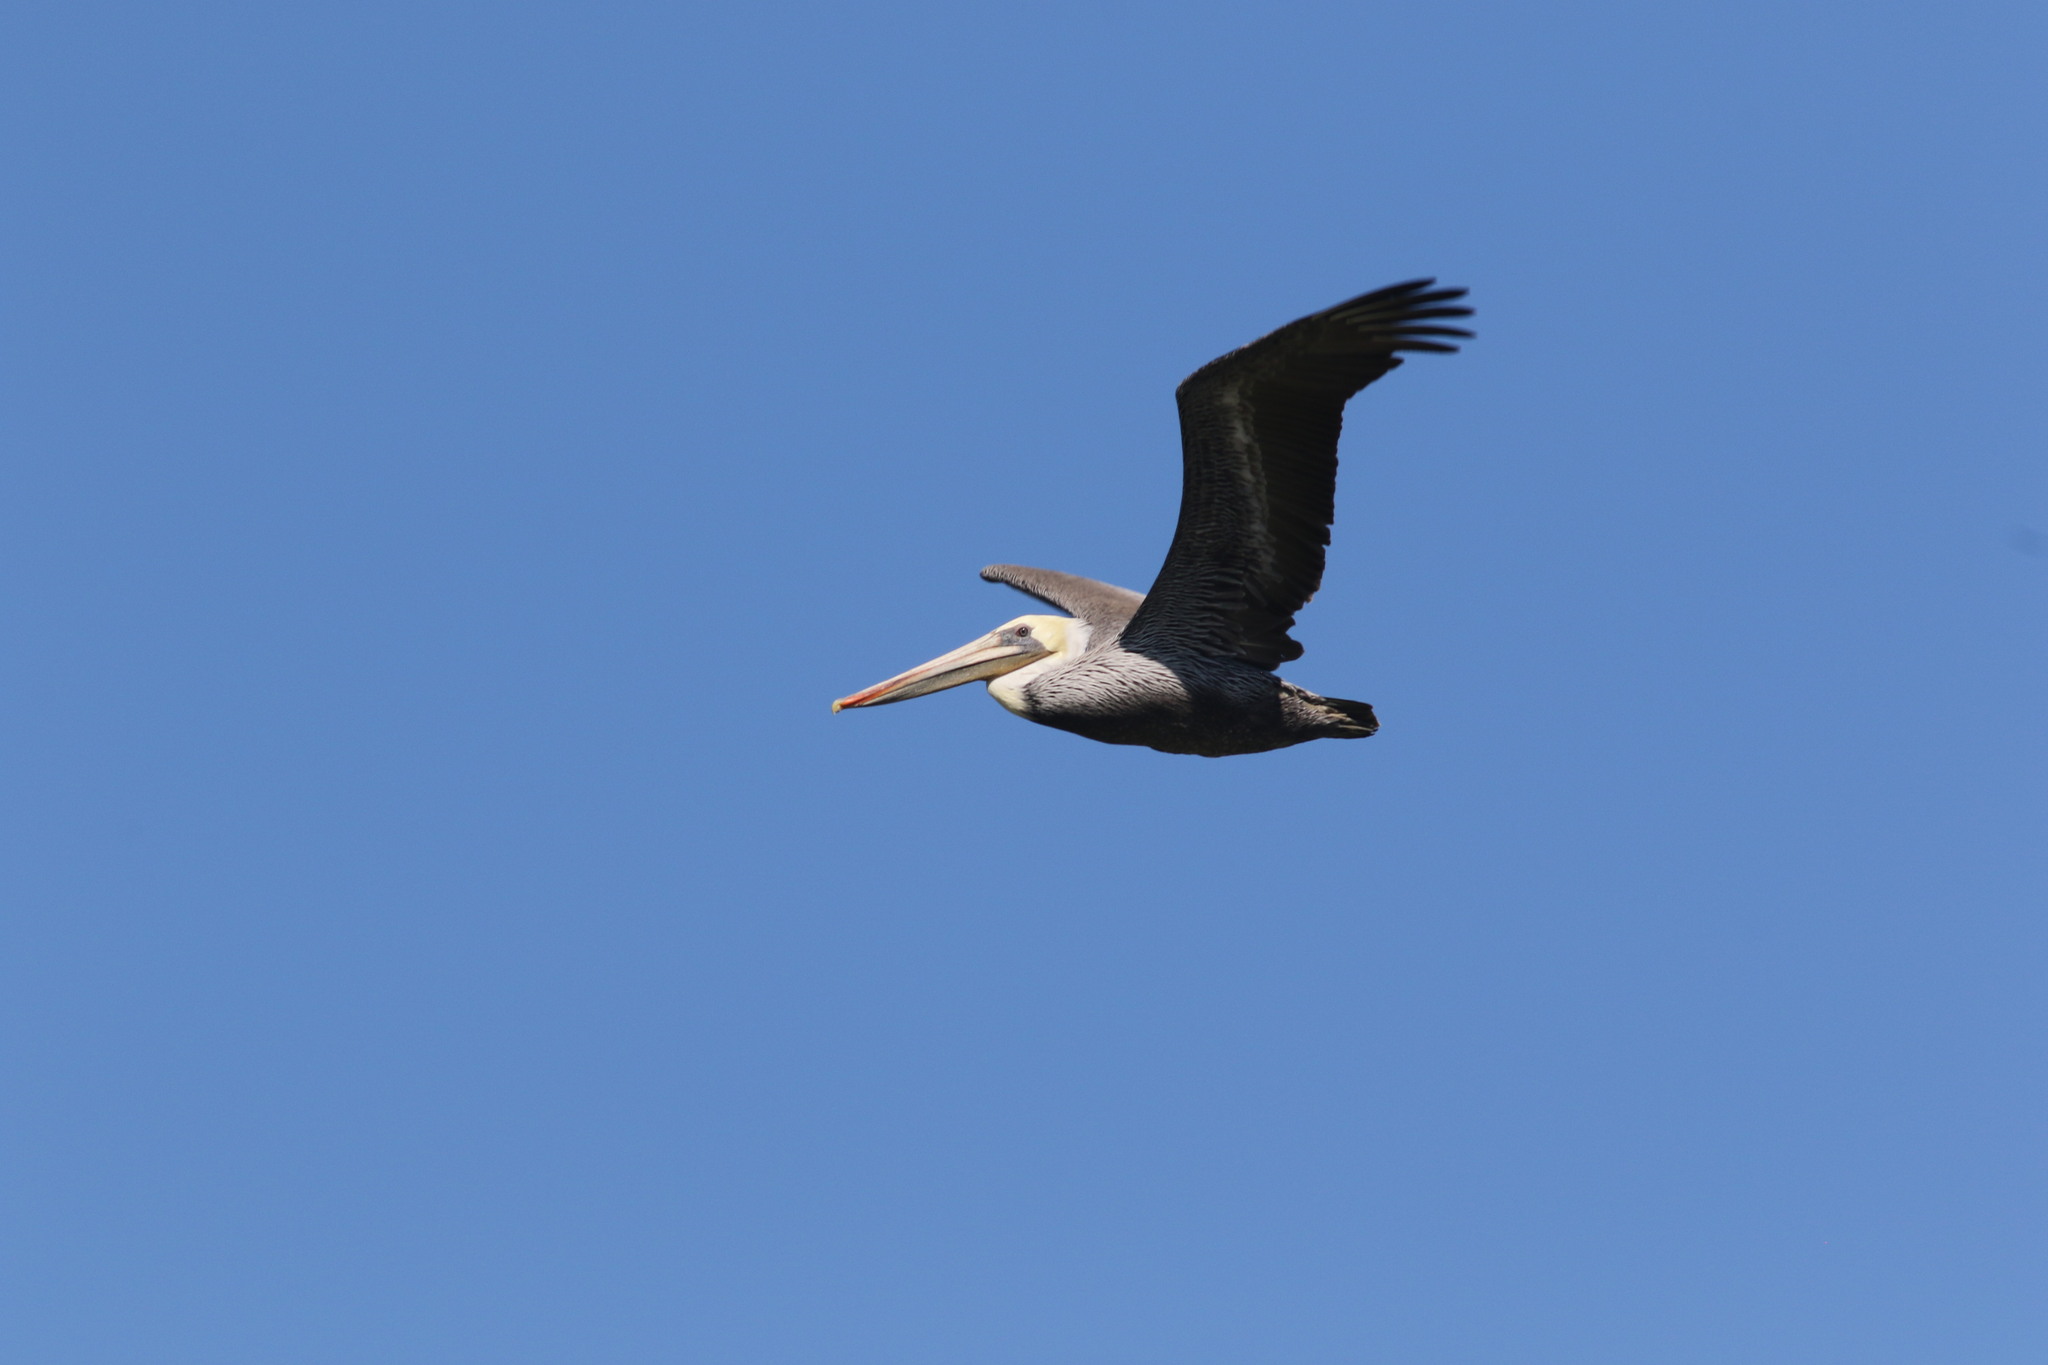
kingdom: Animalia
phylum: Chordata
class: Aves
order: Pelecaniformes
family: Pelecanidae
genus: Pelecanus
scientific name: Pelecanus occidentalis
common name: Brown pelican
